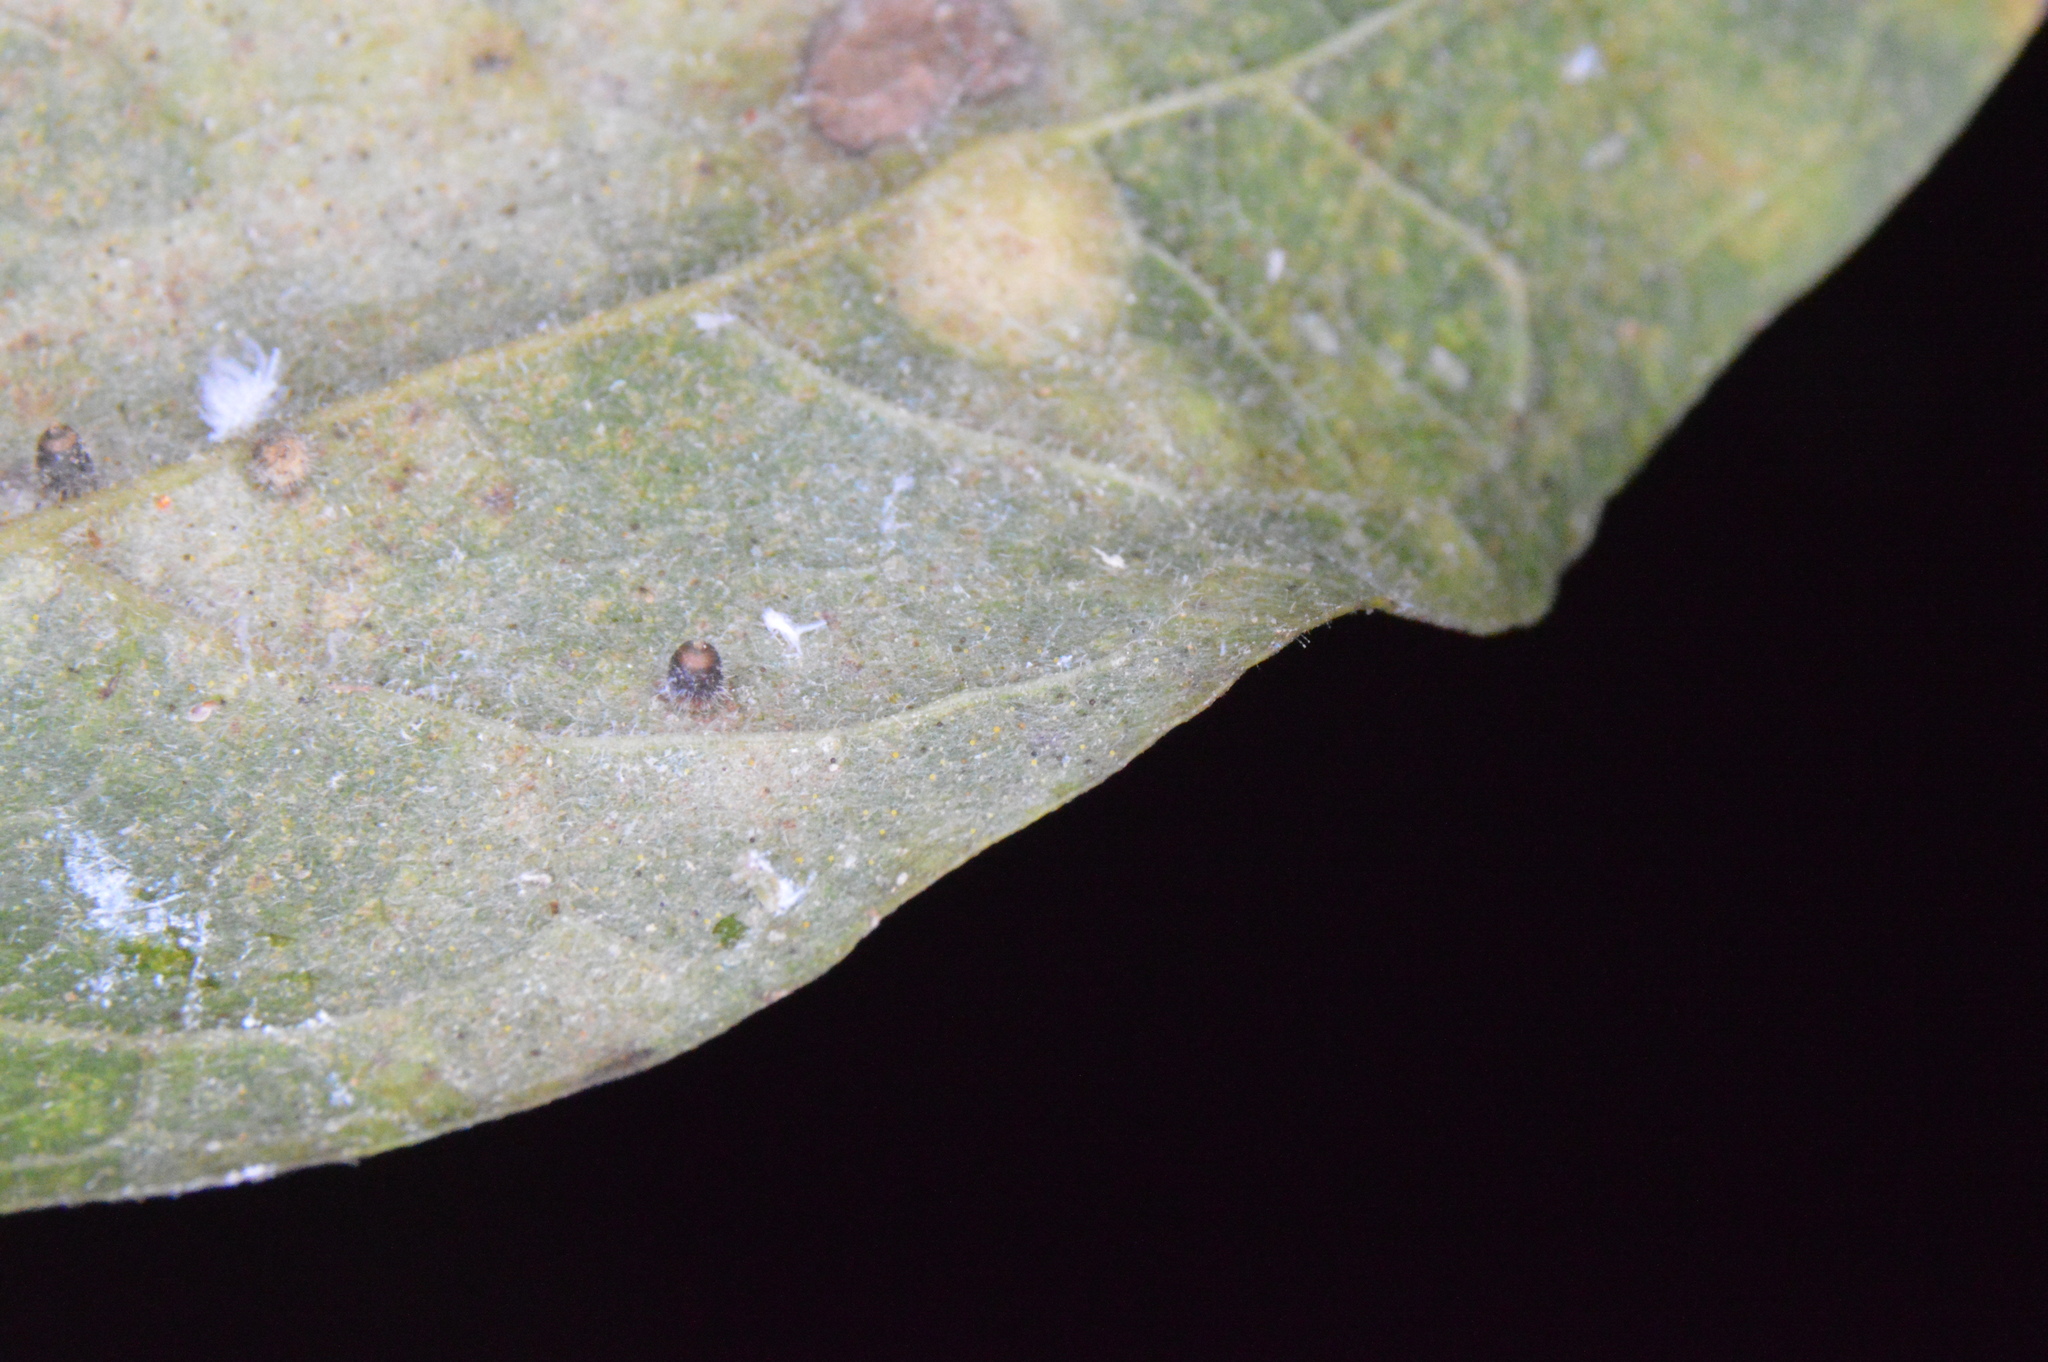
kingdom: Animalia
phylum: Arthropoda
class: Insecta
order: Diptera
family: Cecidomyiidae
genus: Celticecis
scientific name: Celticecis cupiformis
